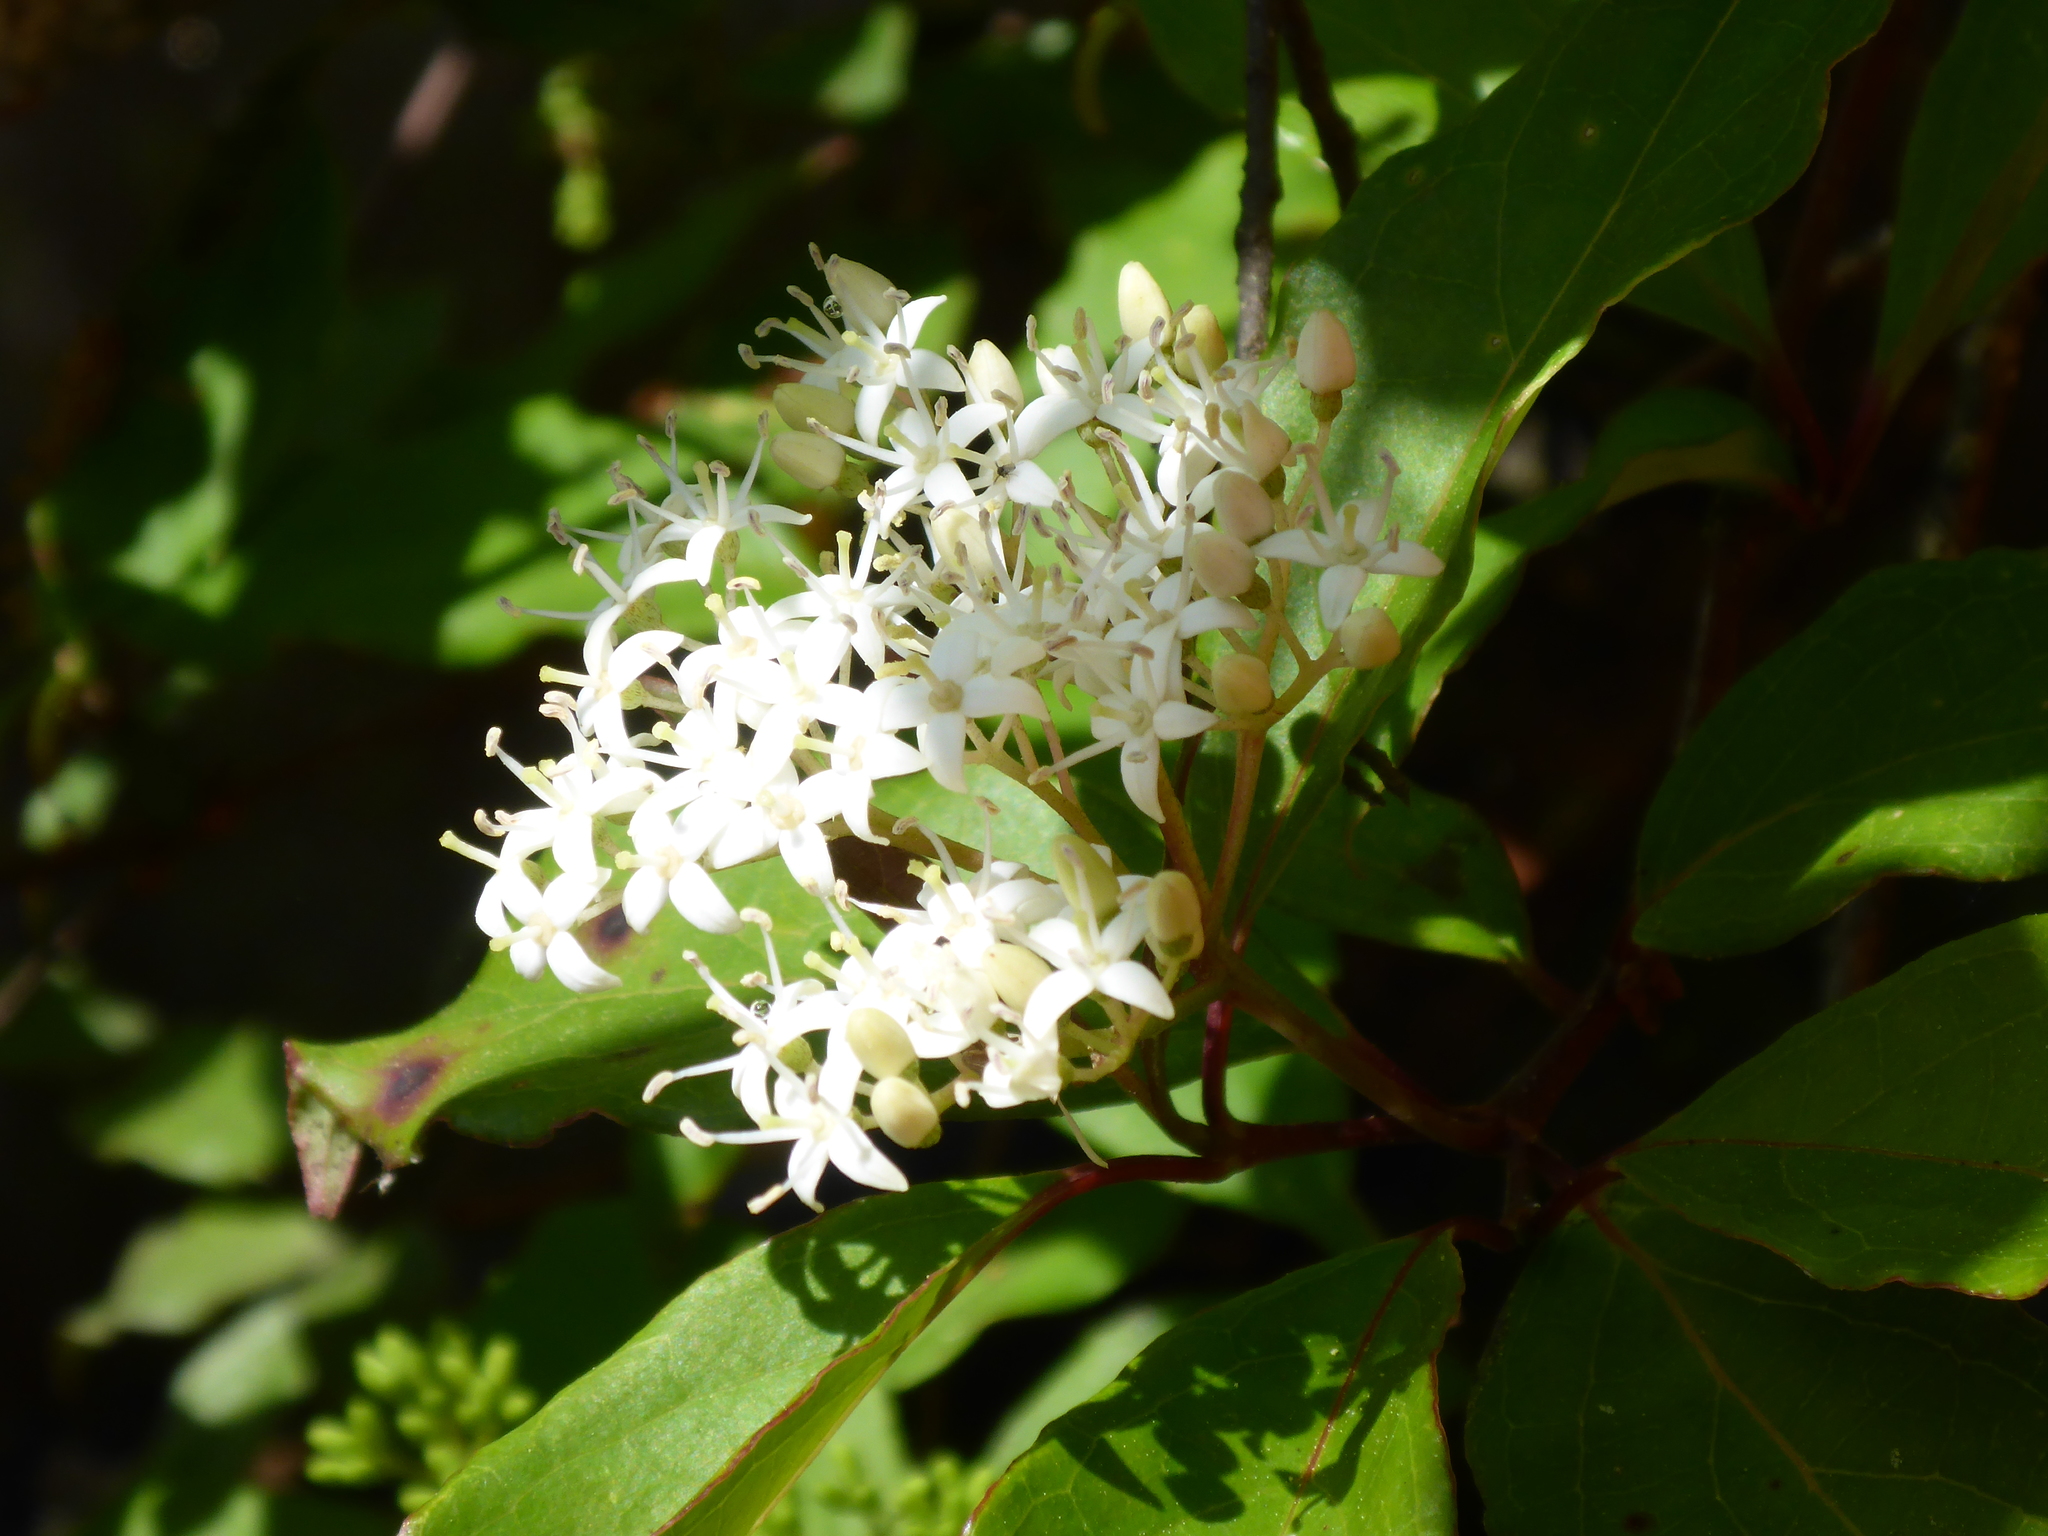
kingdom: Plantae
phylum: Tracheophyta
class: Magnoliopsida
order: Cornales
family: Cornaceae
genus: Cornus
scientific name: Cornus foemina
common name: Swamp dogwood
